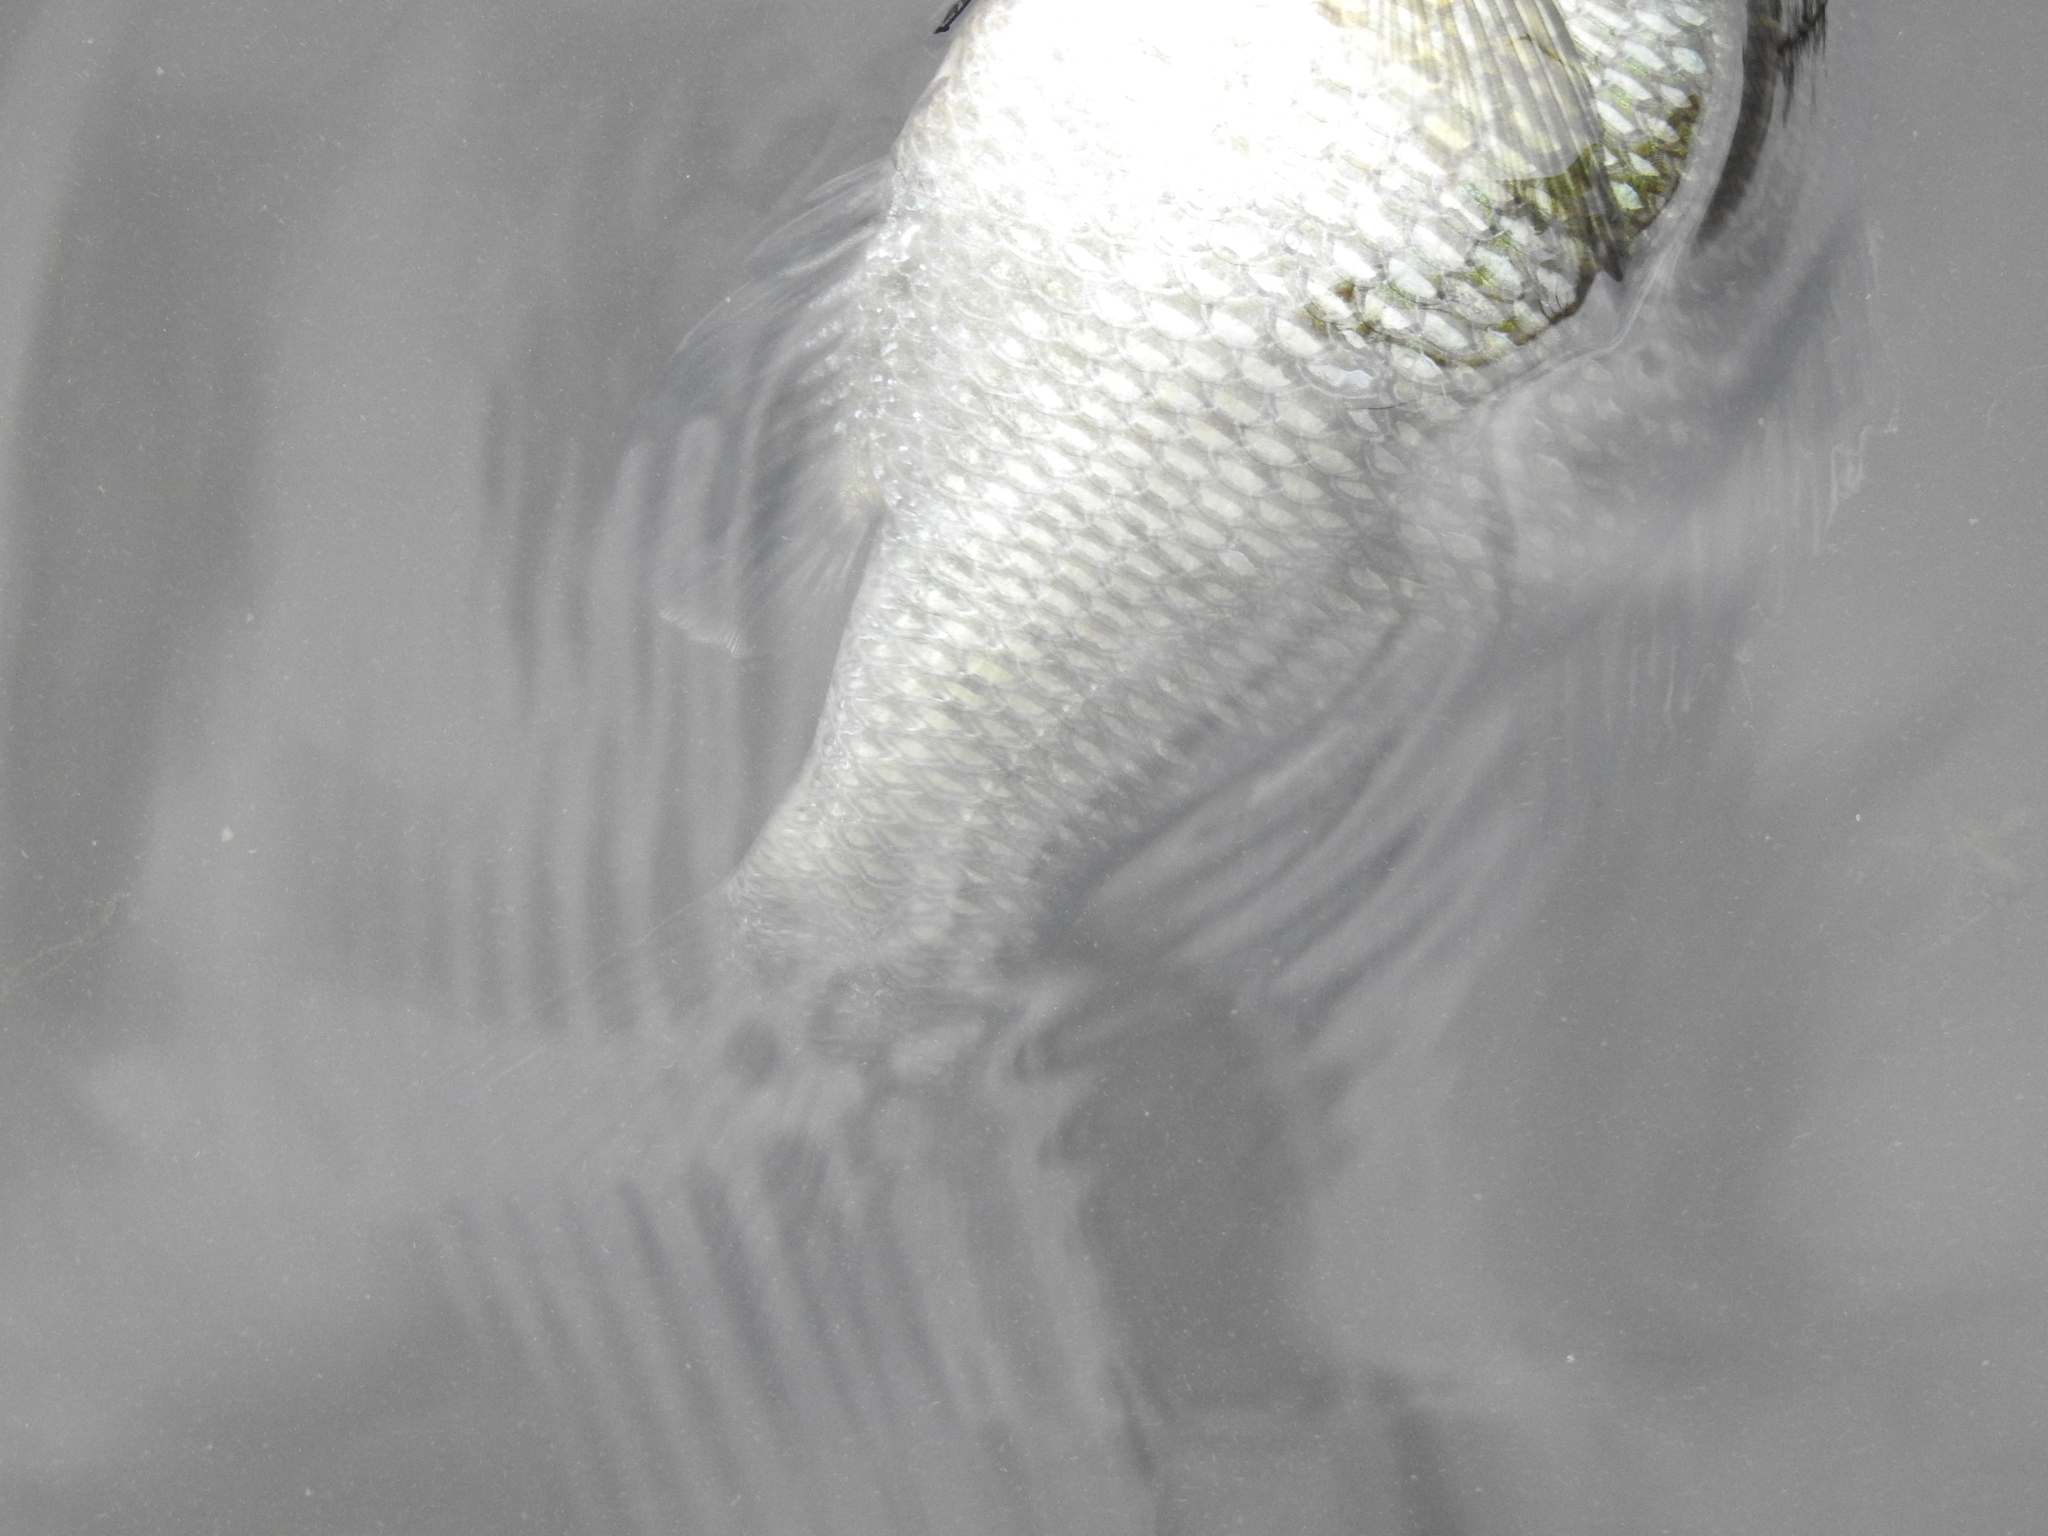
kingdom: Animalia
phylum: Chordata
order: Perciformes
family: Centrarchidae
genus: Lepomis
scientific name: Lepomis microlophus
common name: Redear sunfish
